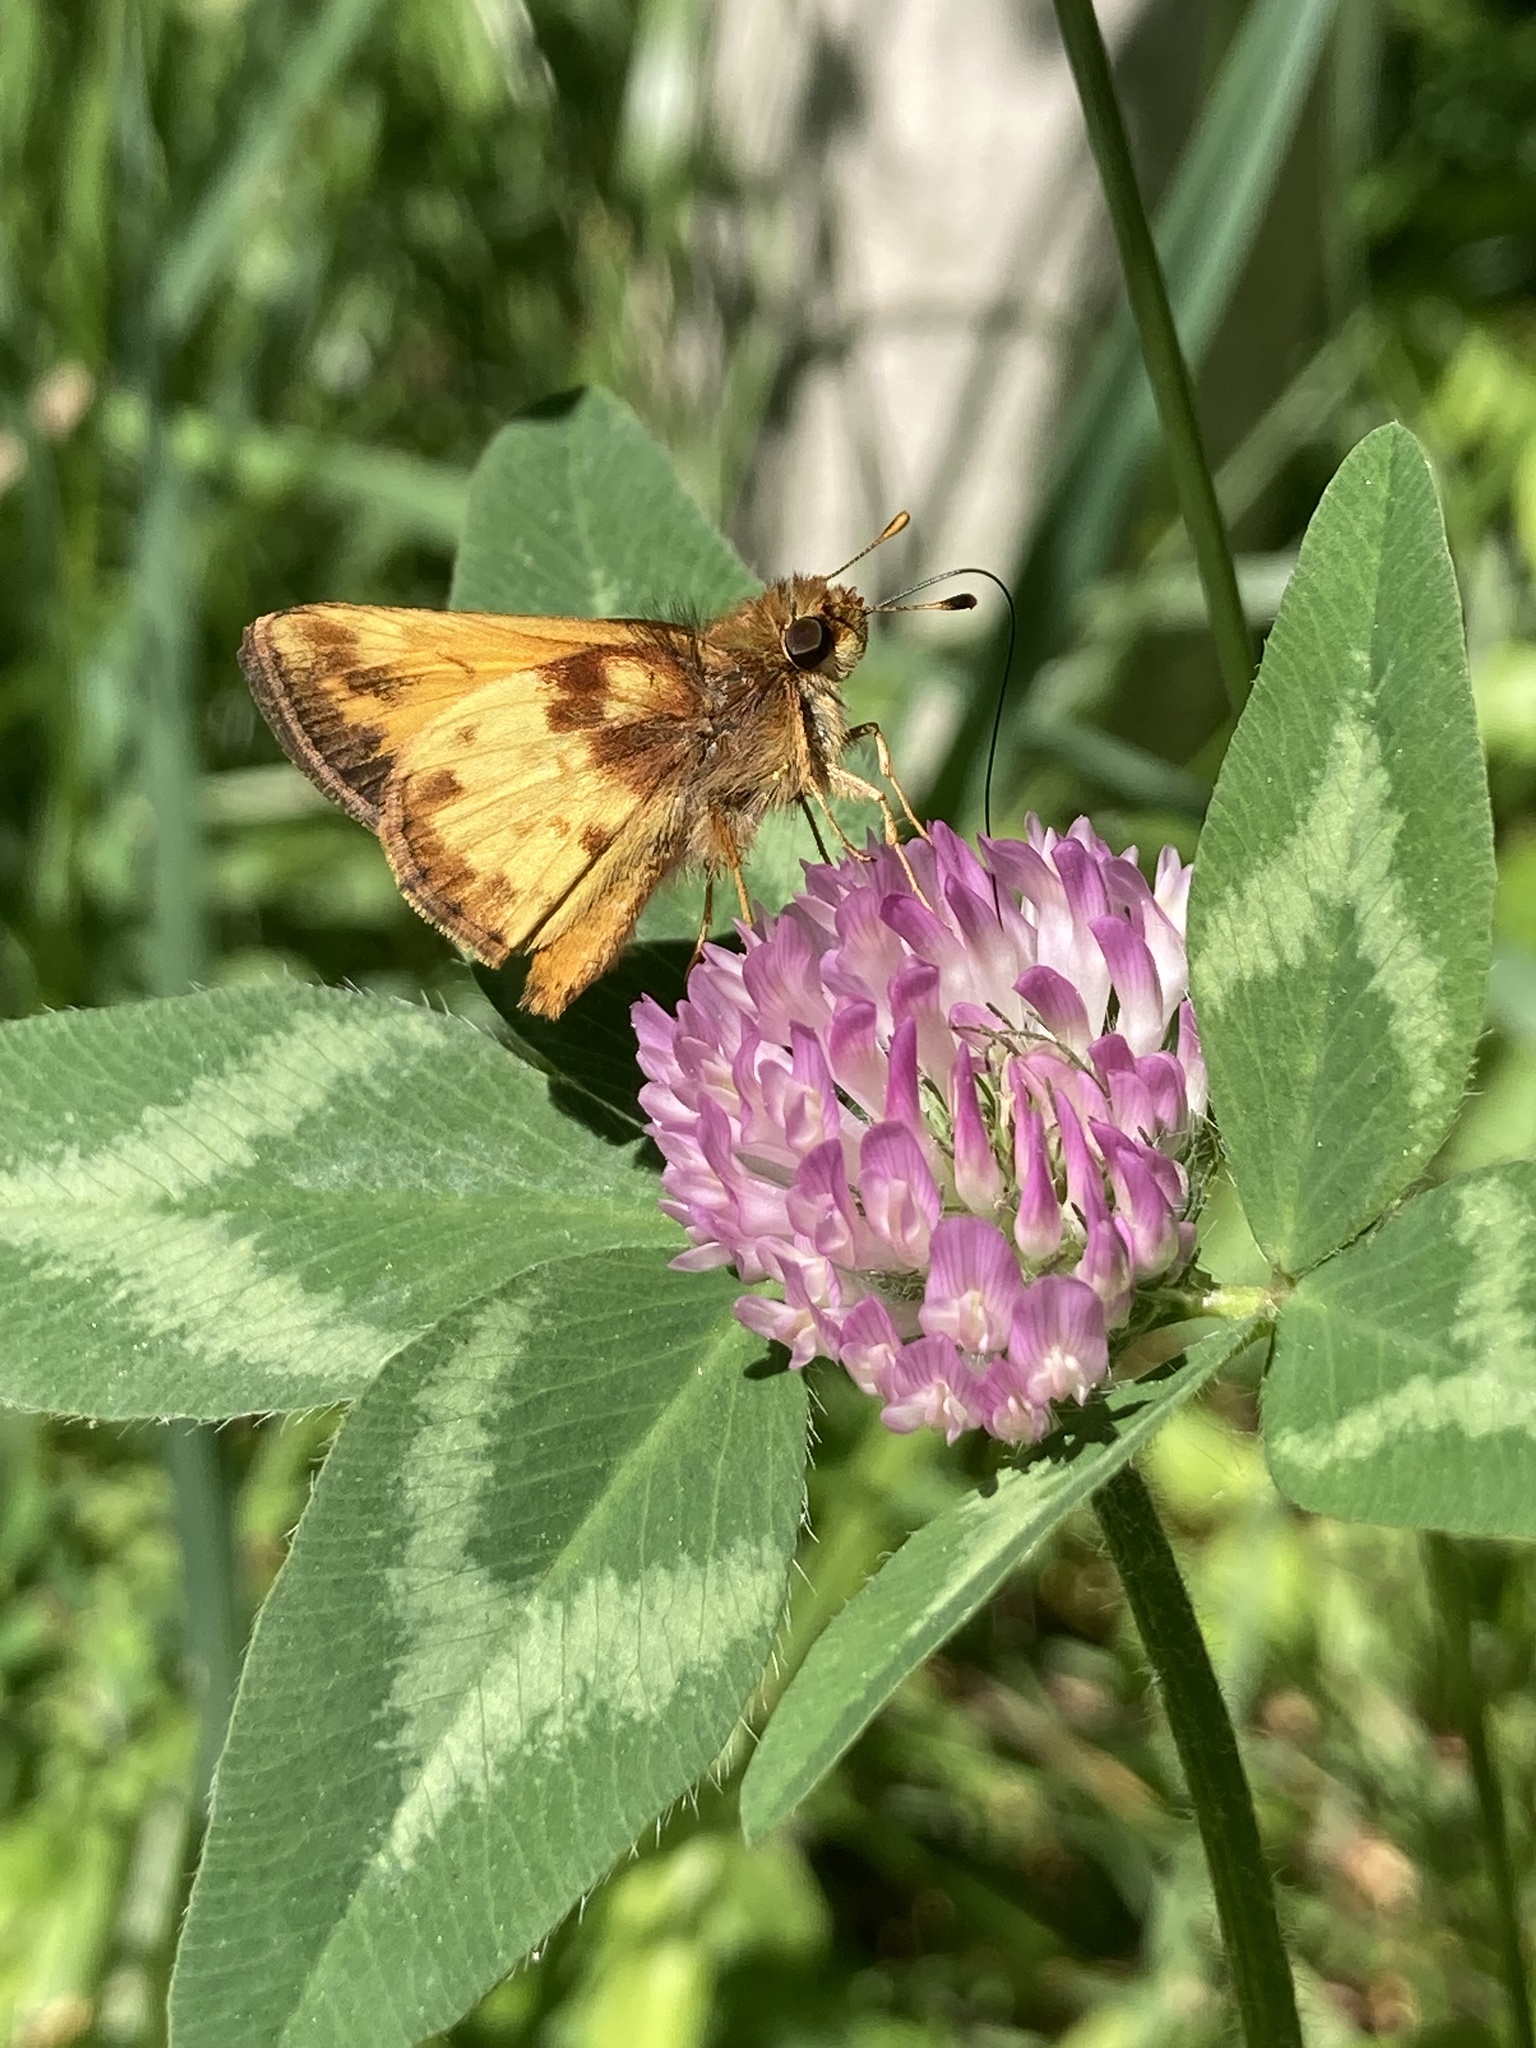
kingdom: Animalia
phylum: Arthropoda
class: Insecta
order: Lepidoptera
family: Hesperiidae
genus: Lon
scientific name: Lon zabulon
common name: Zabulon skipper
